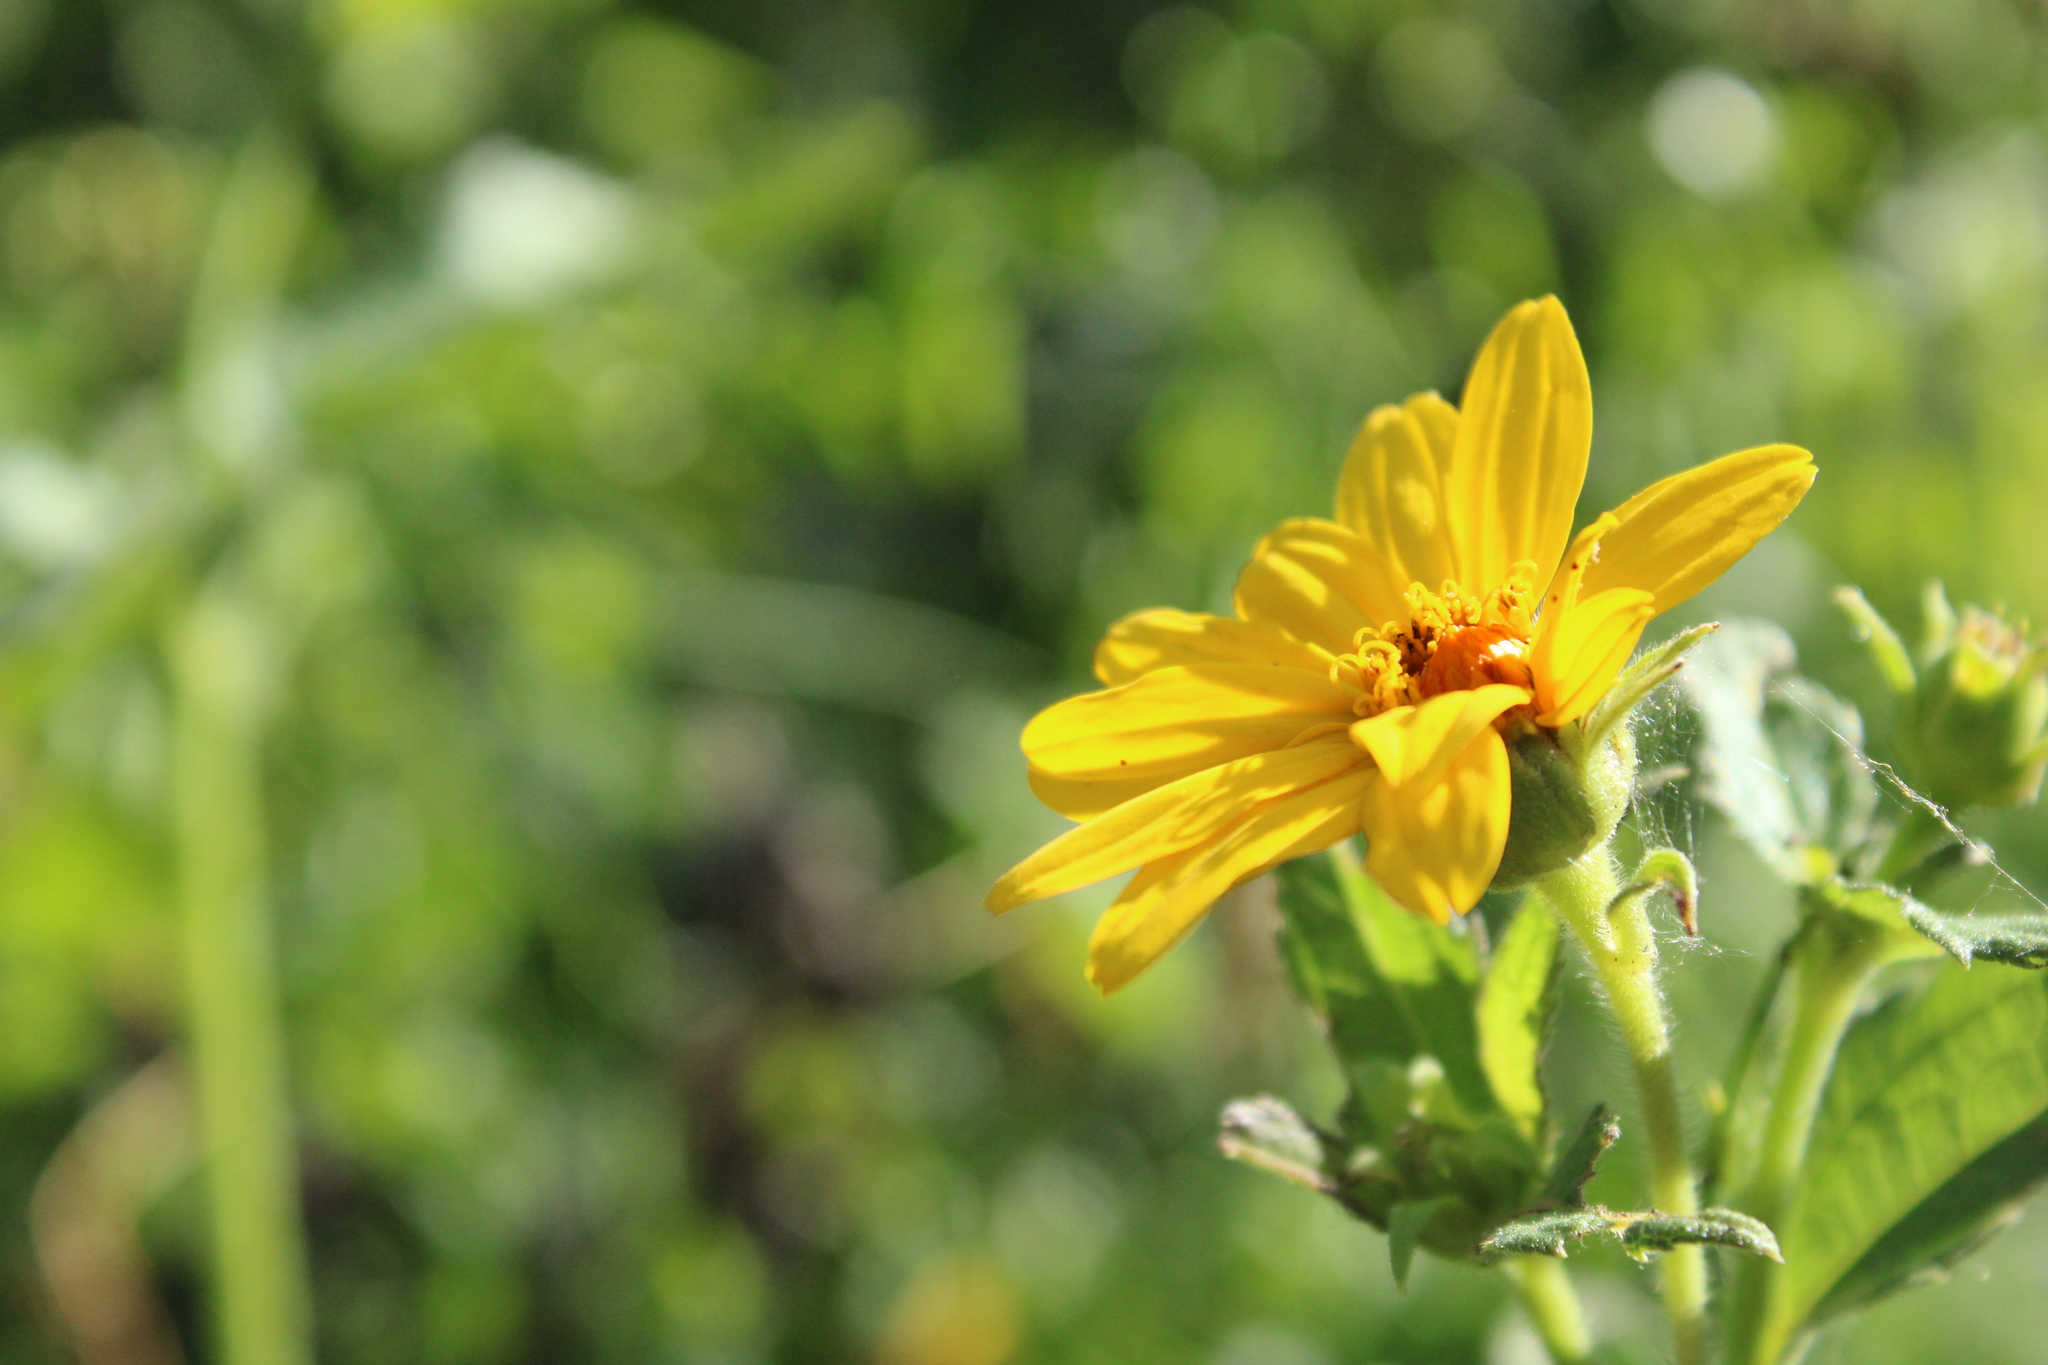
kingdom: Plantae
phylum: Tracheophyta
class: Magnoliopsida
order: Asterales
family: Asteraceae
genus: Wedelia
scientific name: Wedelia silphioides
